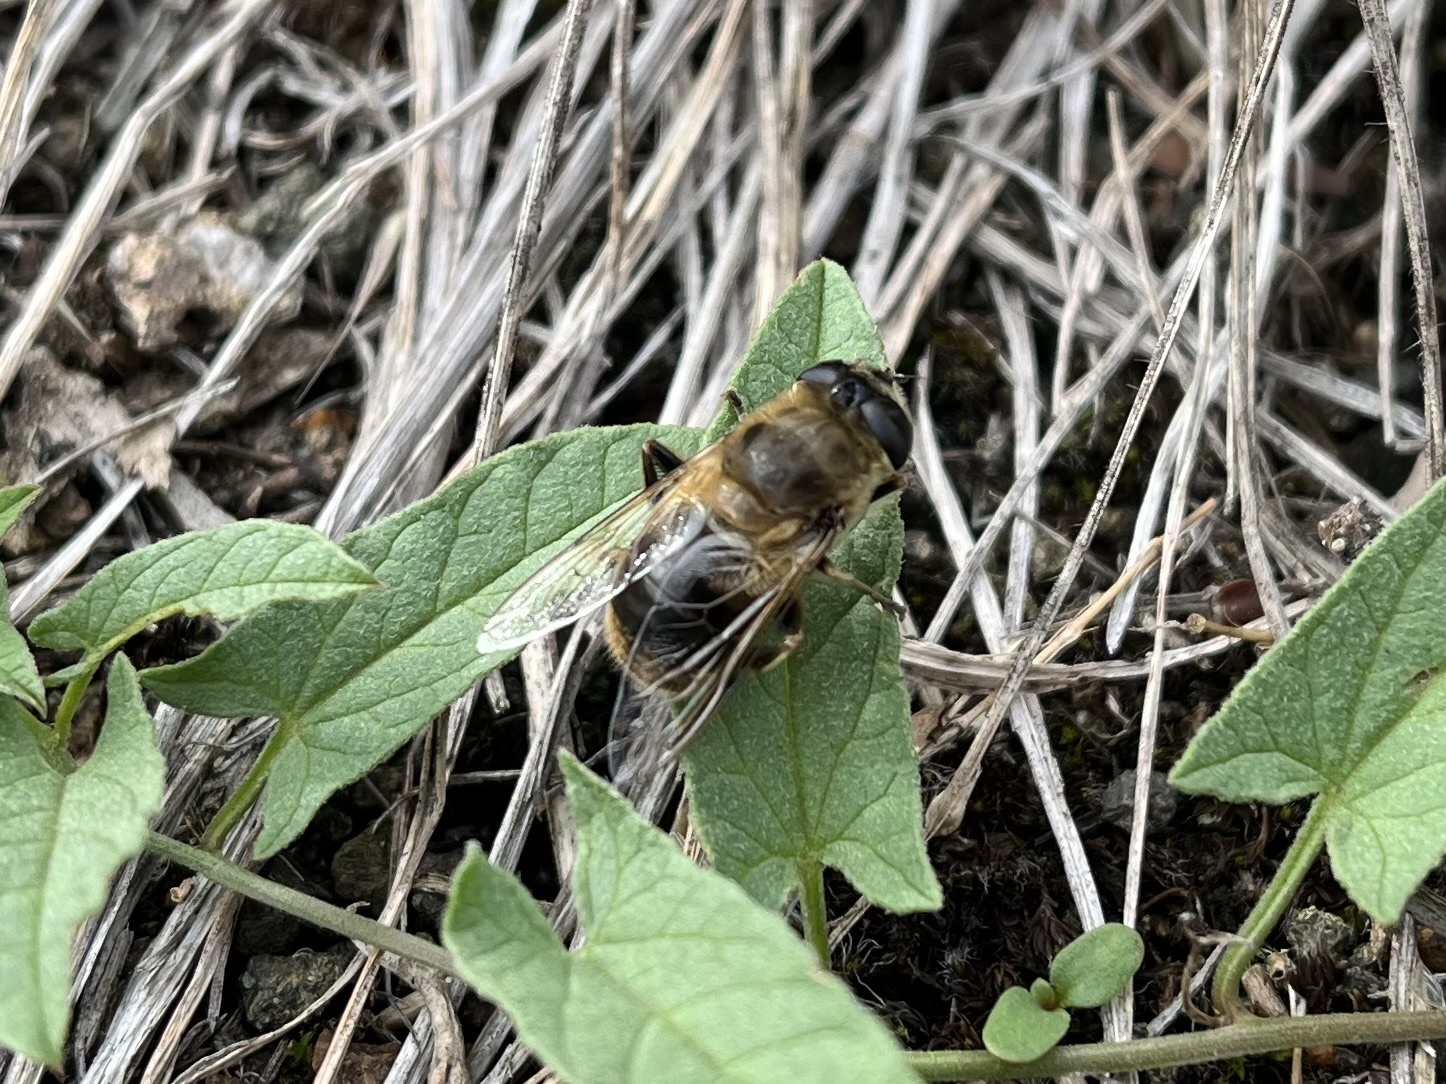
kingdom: Animalia
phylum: Arthropoda
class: Insecta
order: Diptera
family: Syrphidae
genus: Eristalis
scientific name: Eristalis tenax
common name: Drone fly
